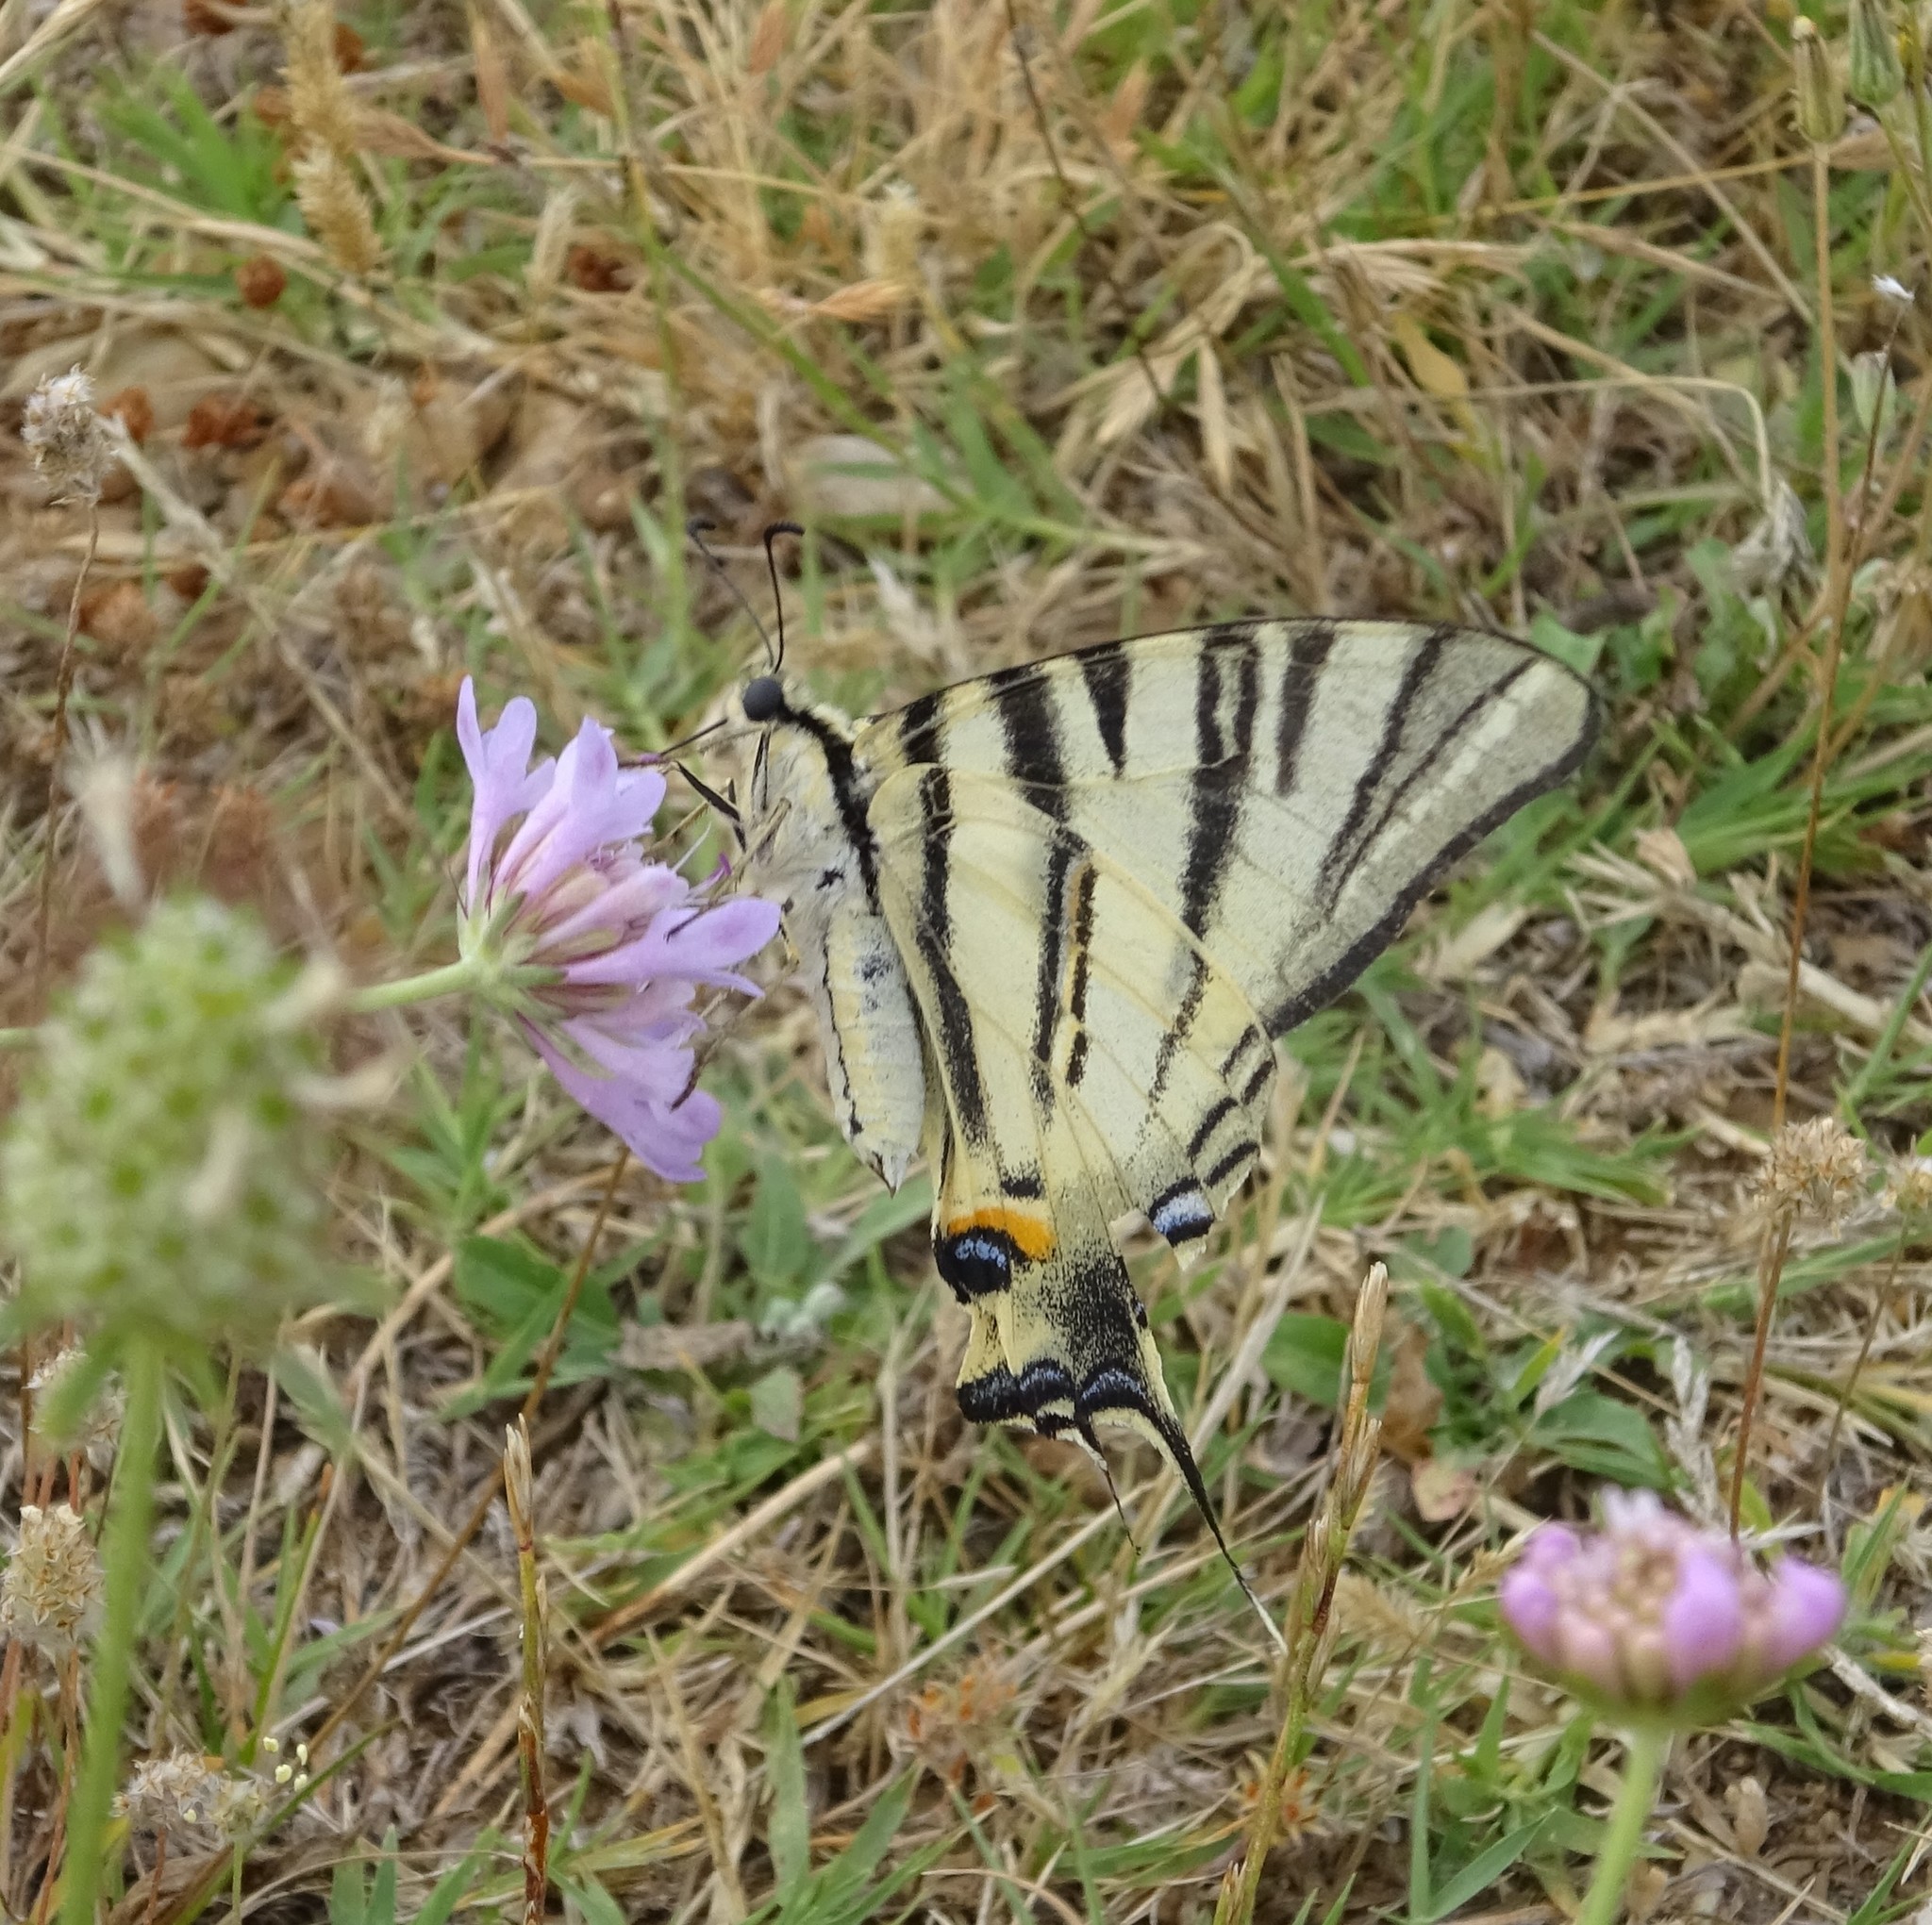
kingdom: Animalia
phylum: Arthropoda
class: Insecta
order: Lepidoptera
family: Papilionidae
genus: Iphiclides
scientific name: Iphiclides podalirius
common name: Scarce swallowtail
